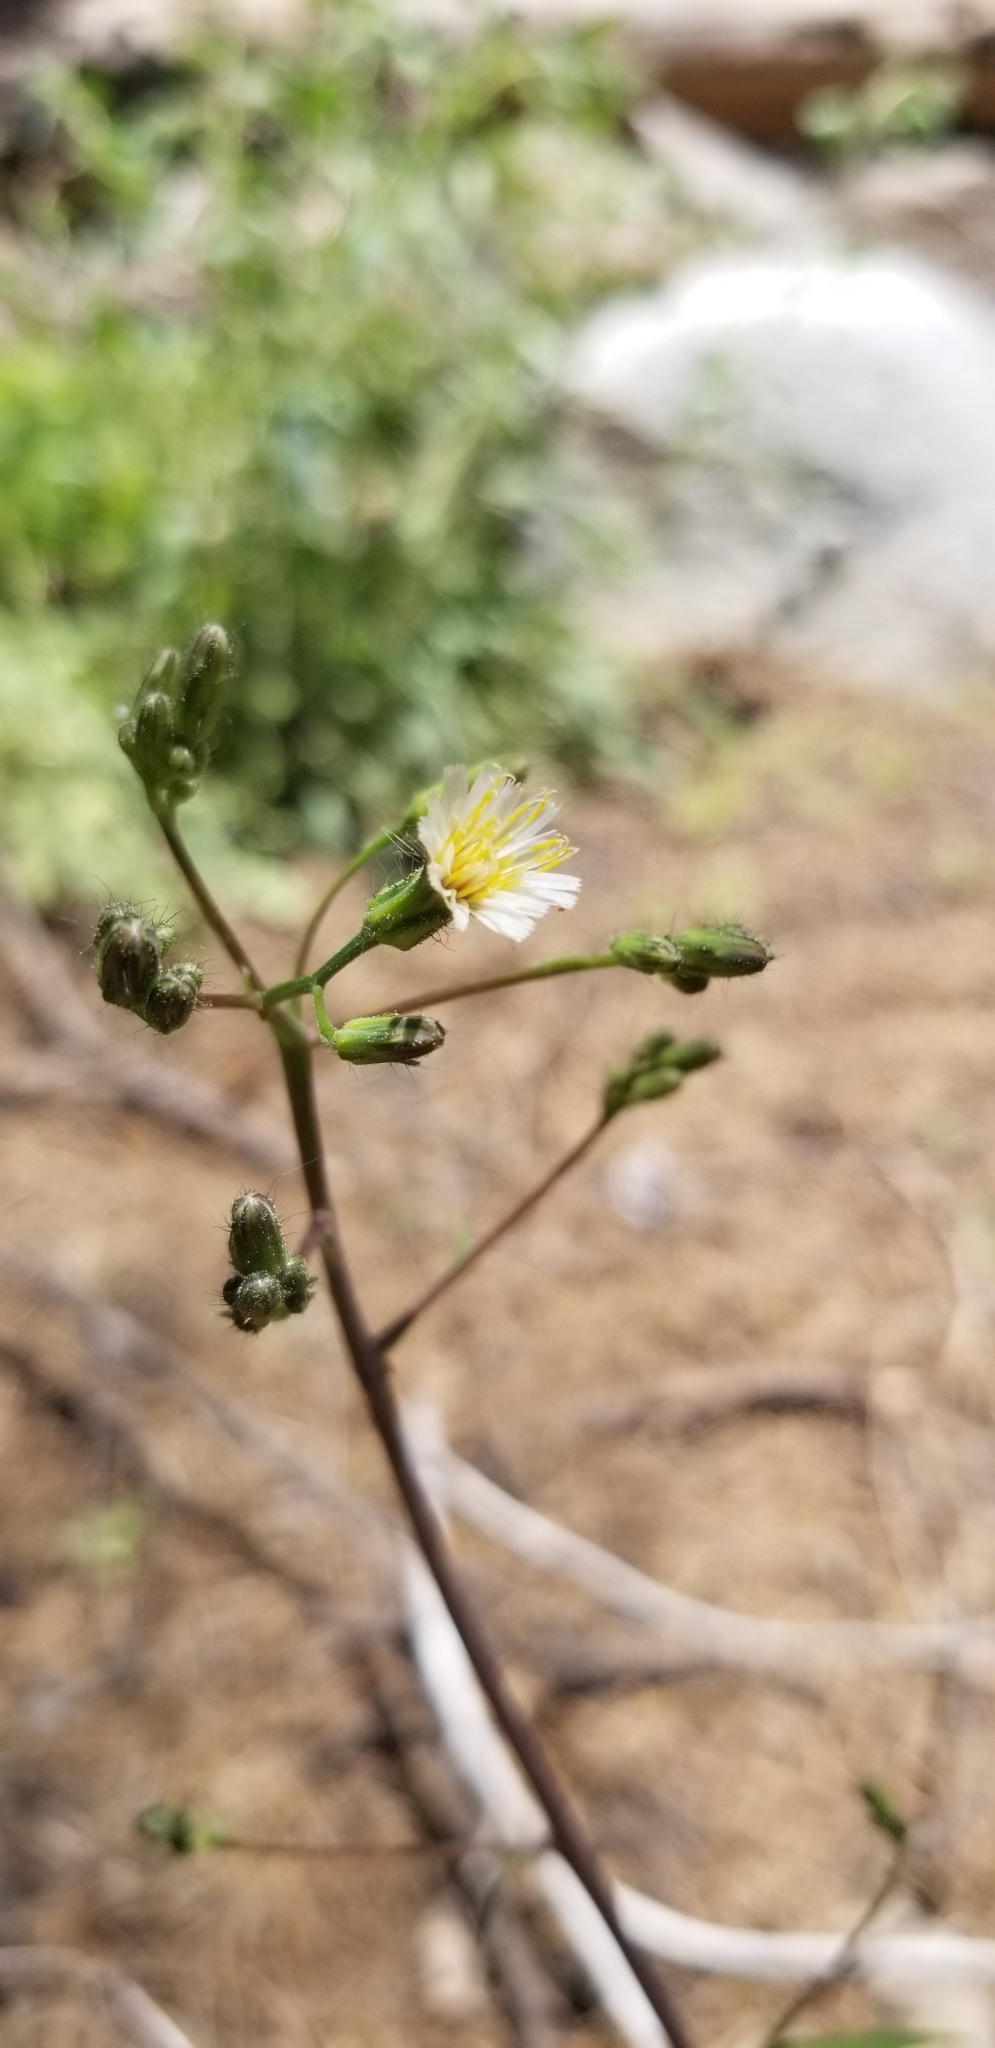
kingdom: Plantae
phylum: Tracheophyta
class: Magnoliopsida
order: Asterales
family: Asteraceae
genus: Hieracium
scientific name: Hieracium albiflorum
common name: White hawkweed
